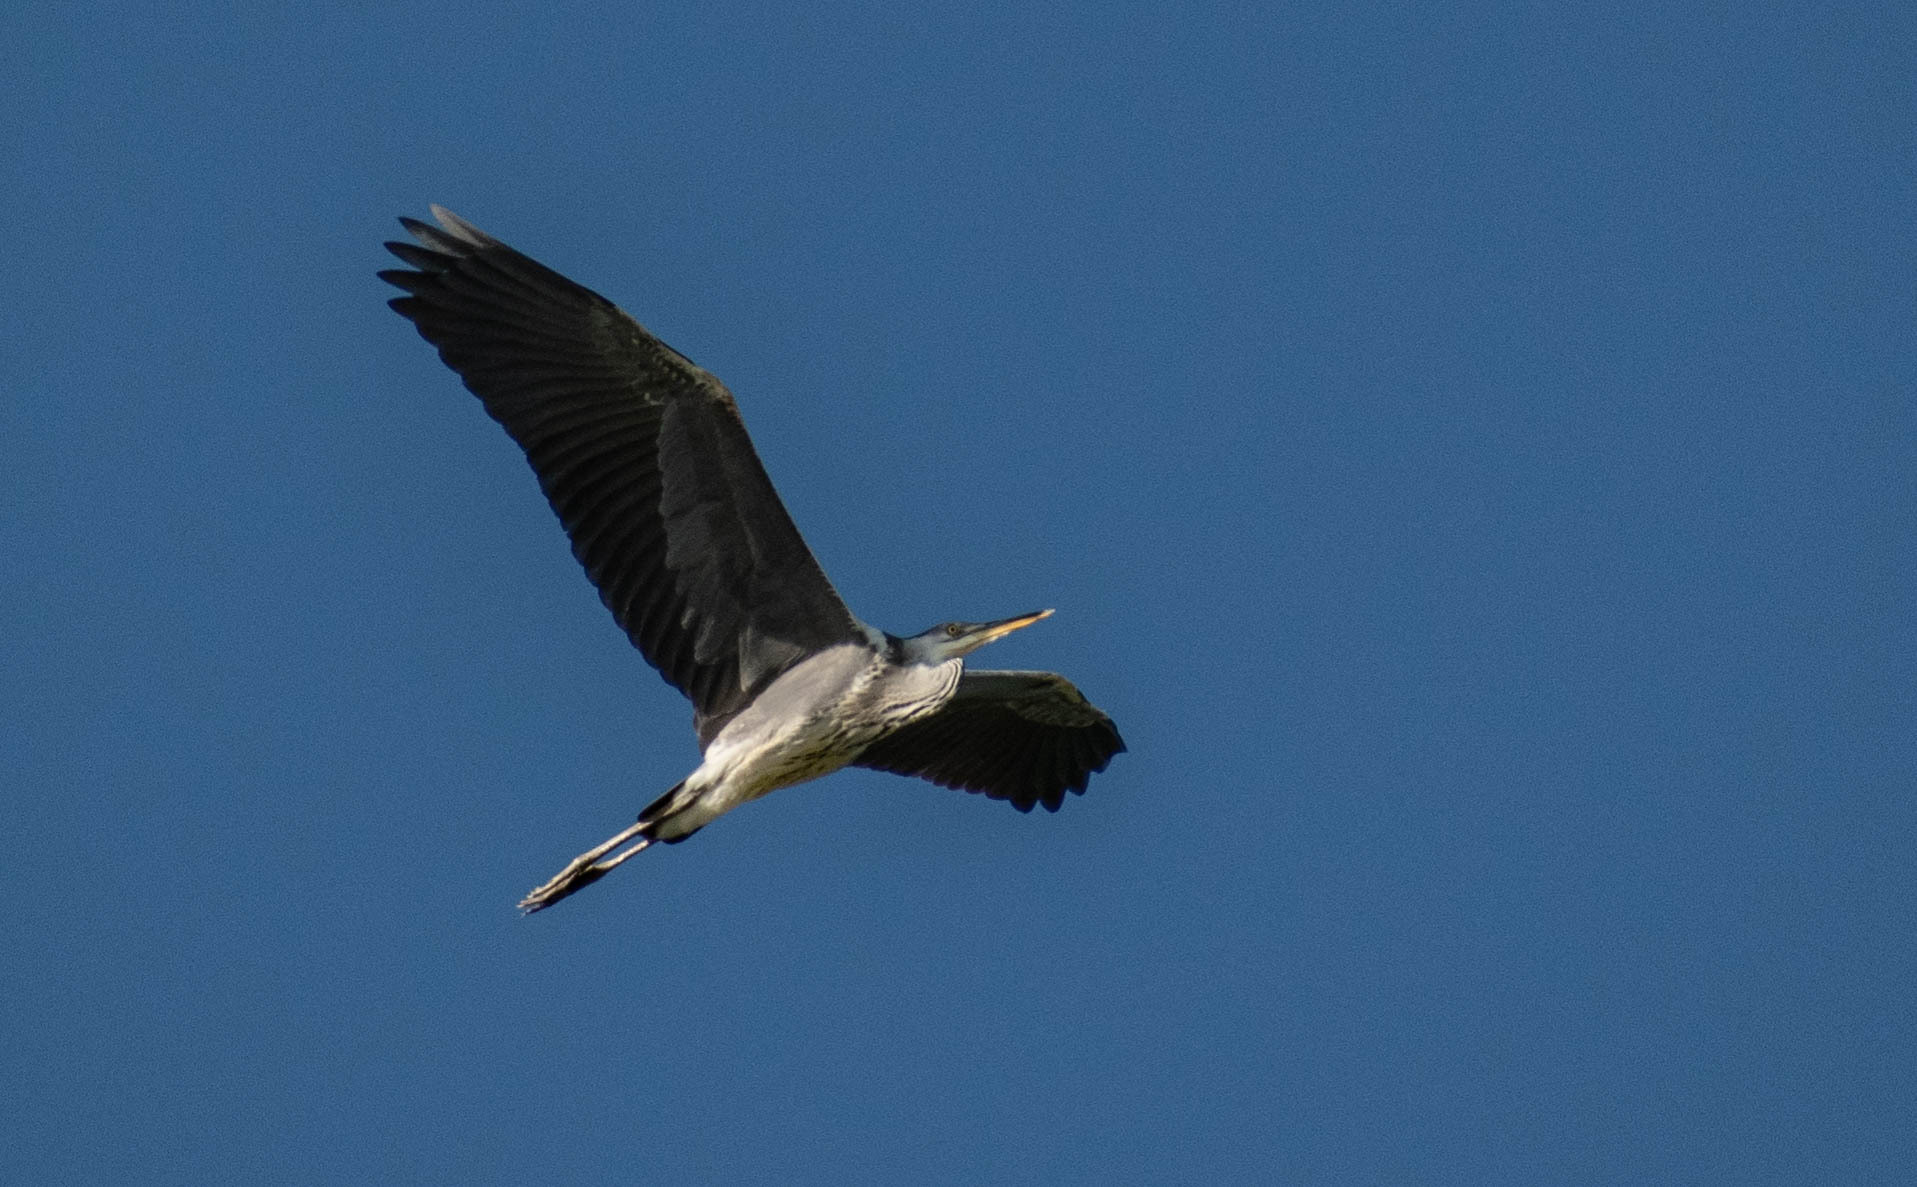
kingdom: Animalia
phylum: Chordata
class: Aves
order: Pelecaniformes
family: Ardeidae
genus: Ardea
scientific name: Ardea cinerea
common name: Grey heron
